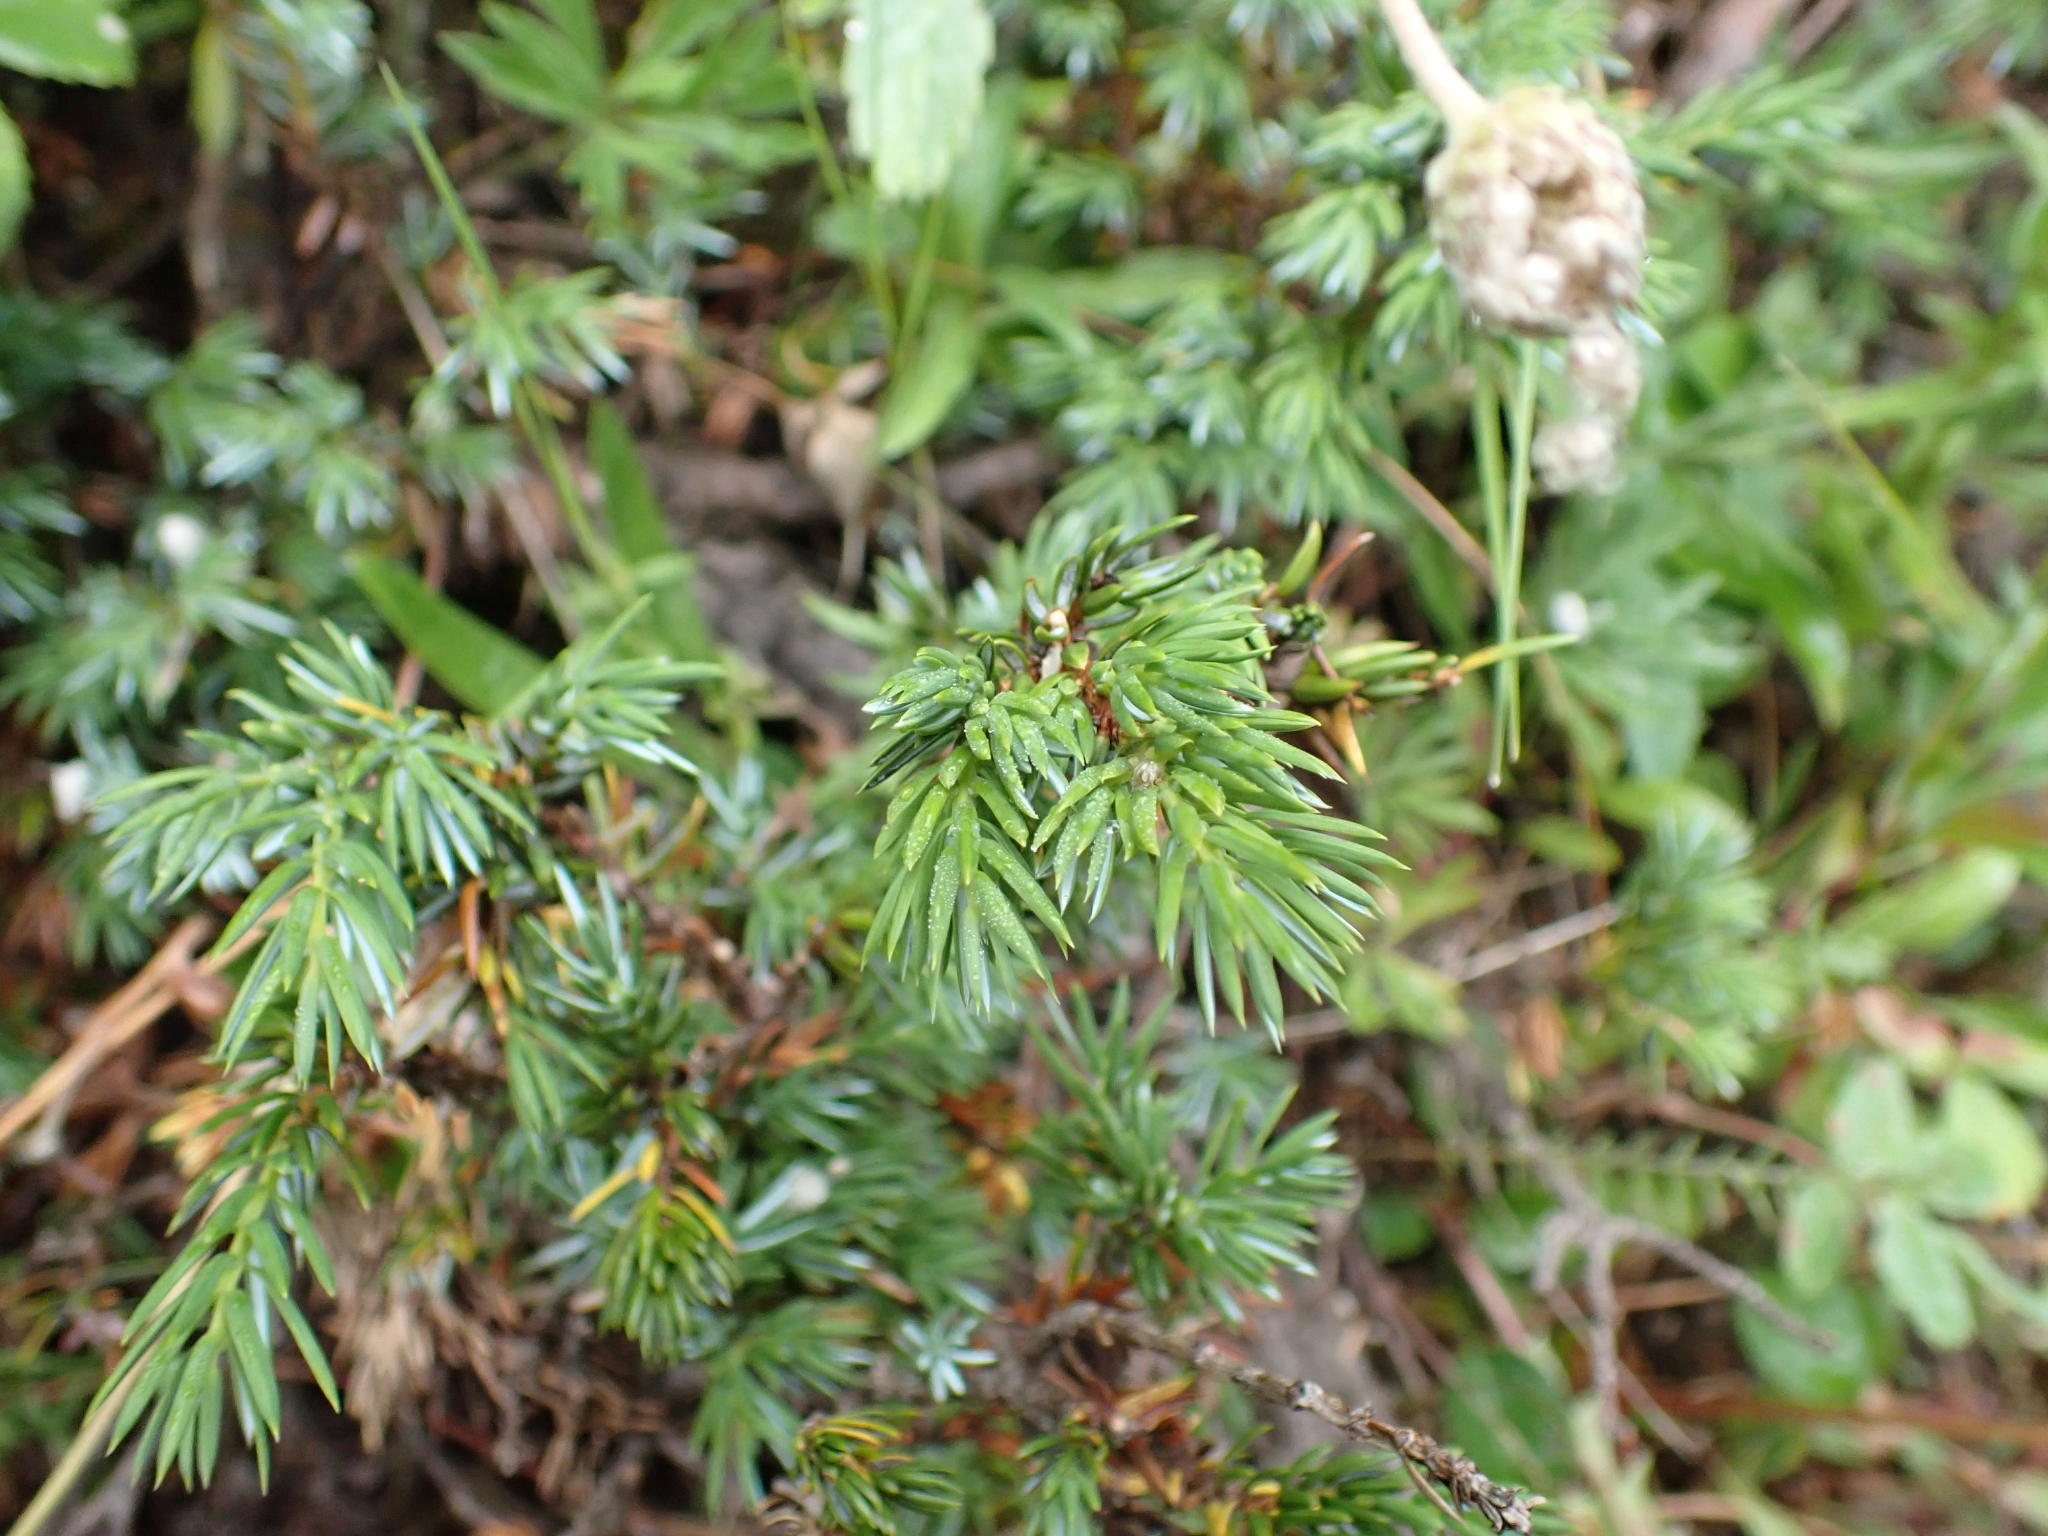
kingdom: Plantae
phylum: Tracheophyta
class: Pinopsida
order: Pinales
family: Cupressaceae
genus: Juniperus
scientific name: Juniperus communis
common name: Common juniper
